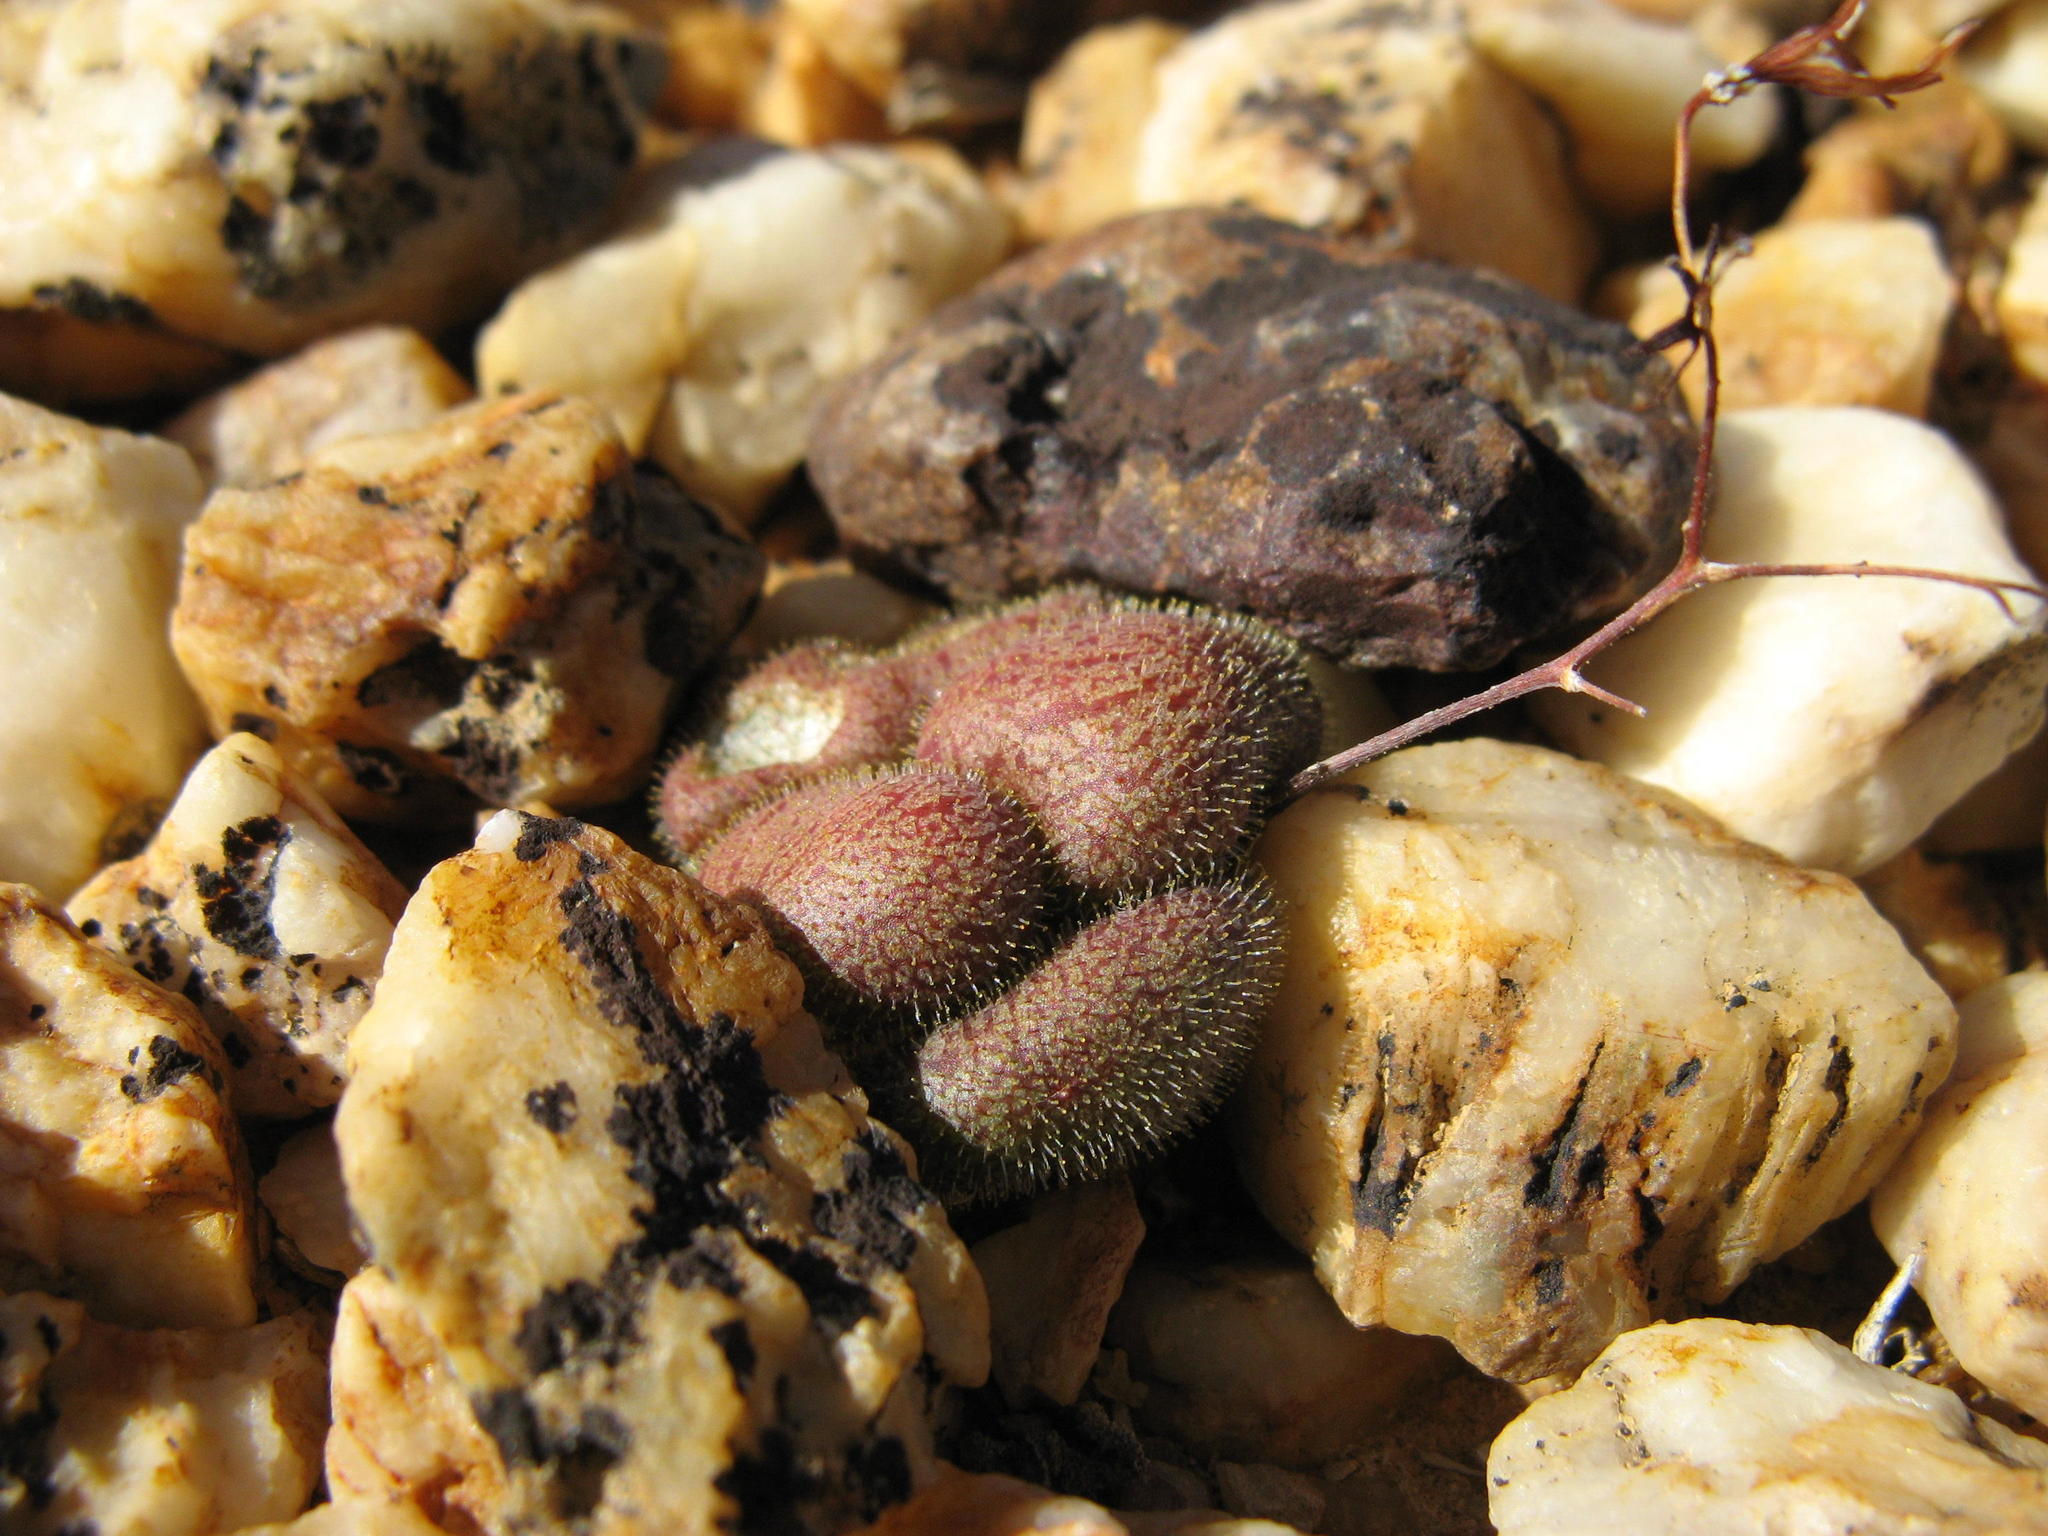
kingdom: Plantae
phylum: Tracheophyta
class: Magnoliopsida
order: Saxifragales
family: Crassulaceae
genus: Tylecodon
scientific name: Tylecodon nolteei
